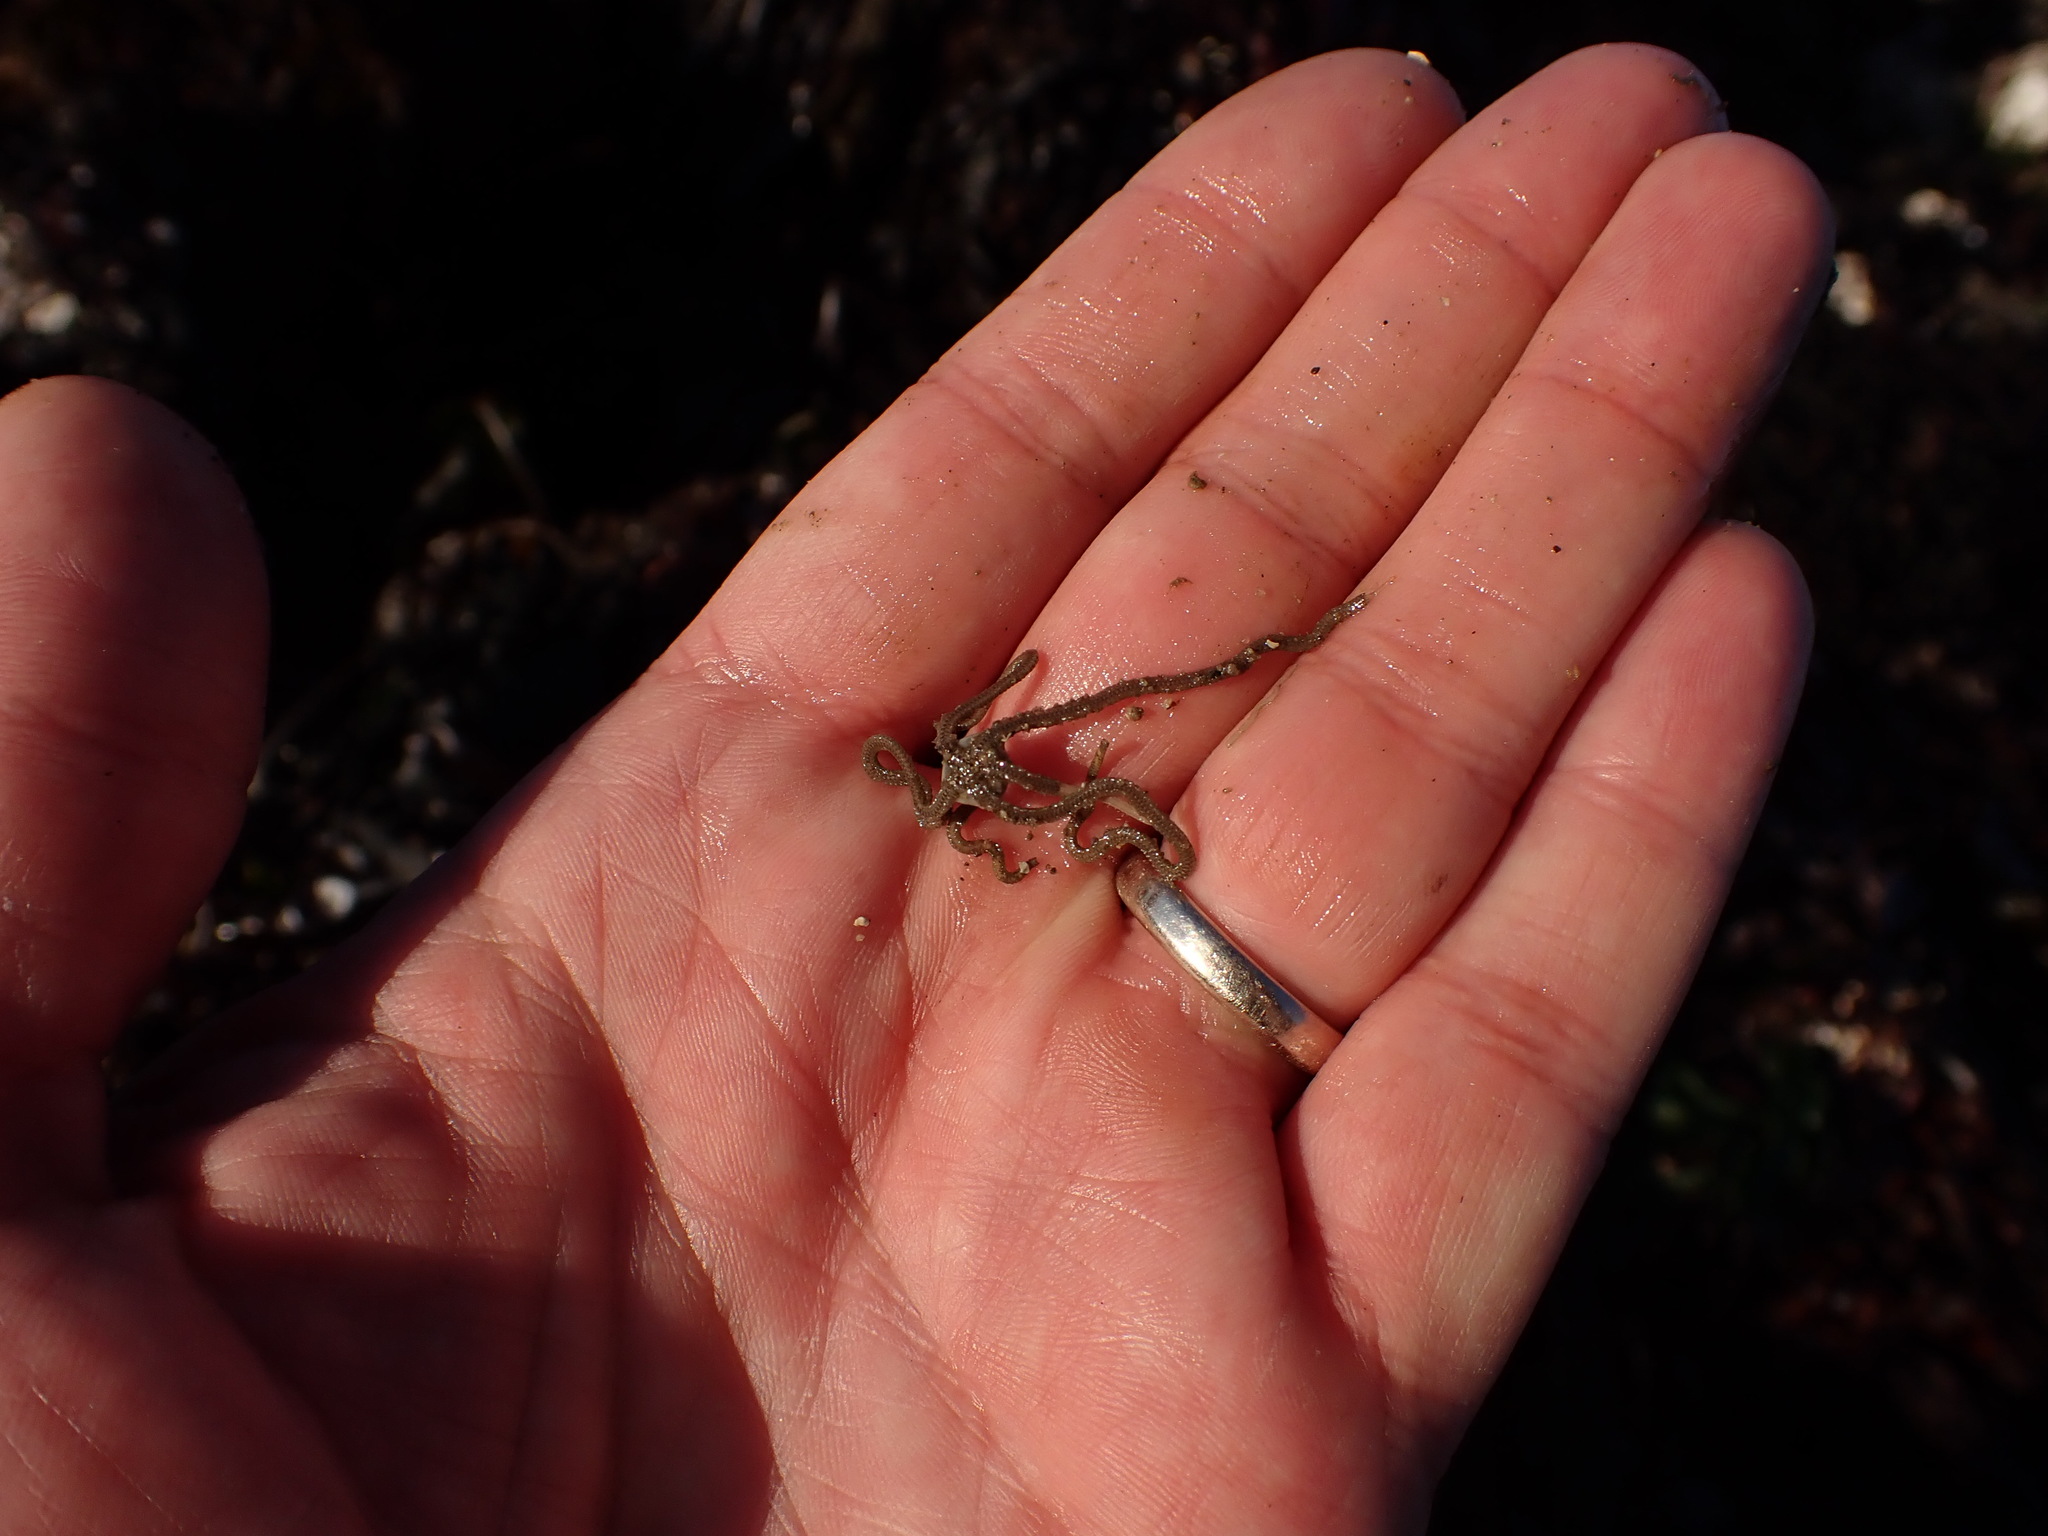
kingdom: Animalia
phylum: Echinodermata
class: Ophiuroidea
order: Amphilepidida
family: Amphiuridae
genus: Amphiodia
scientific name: Amphiodia occidentalis
